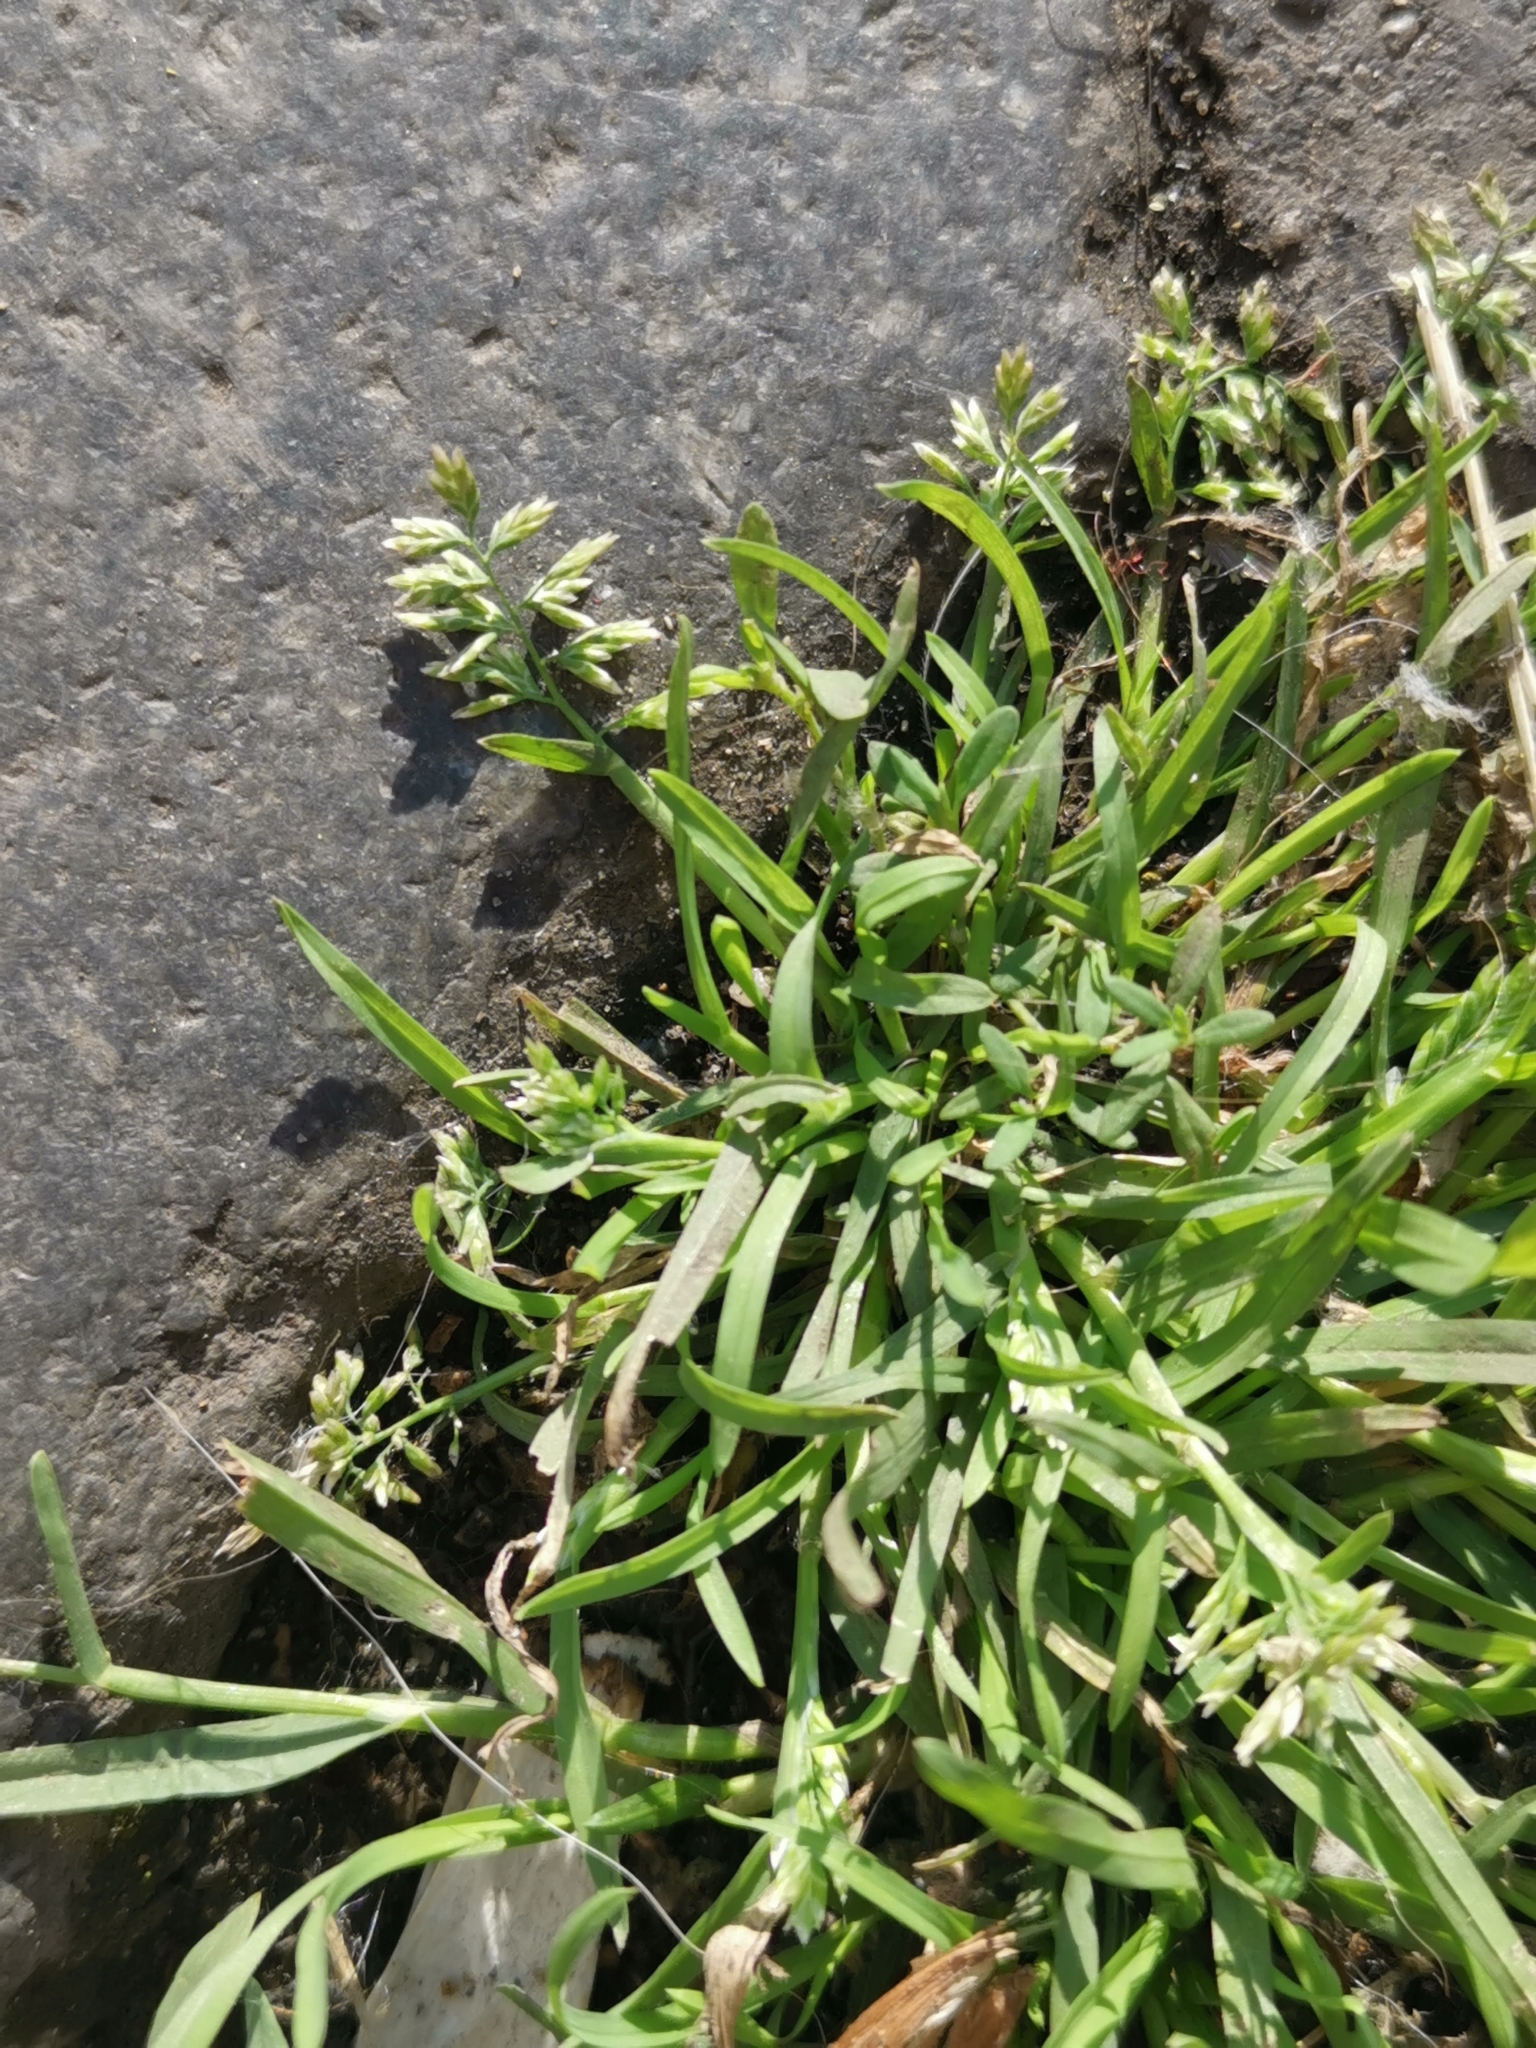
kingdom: Plantae
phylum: Tracheophyta
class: Liliopsida
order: Poales
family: Poaceae
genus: Poa
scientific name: Poa annua
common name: Annual bluegrass
